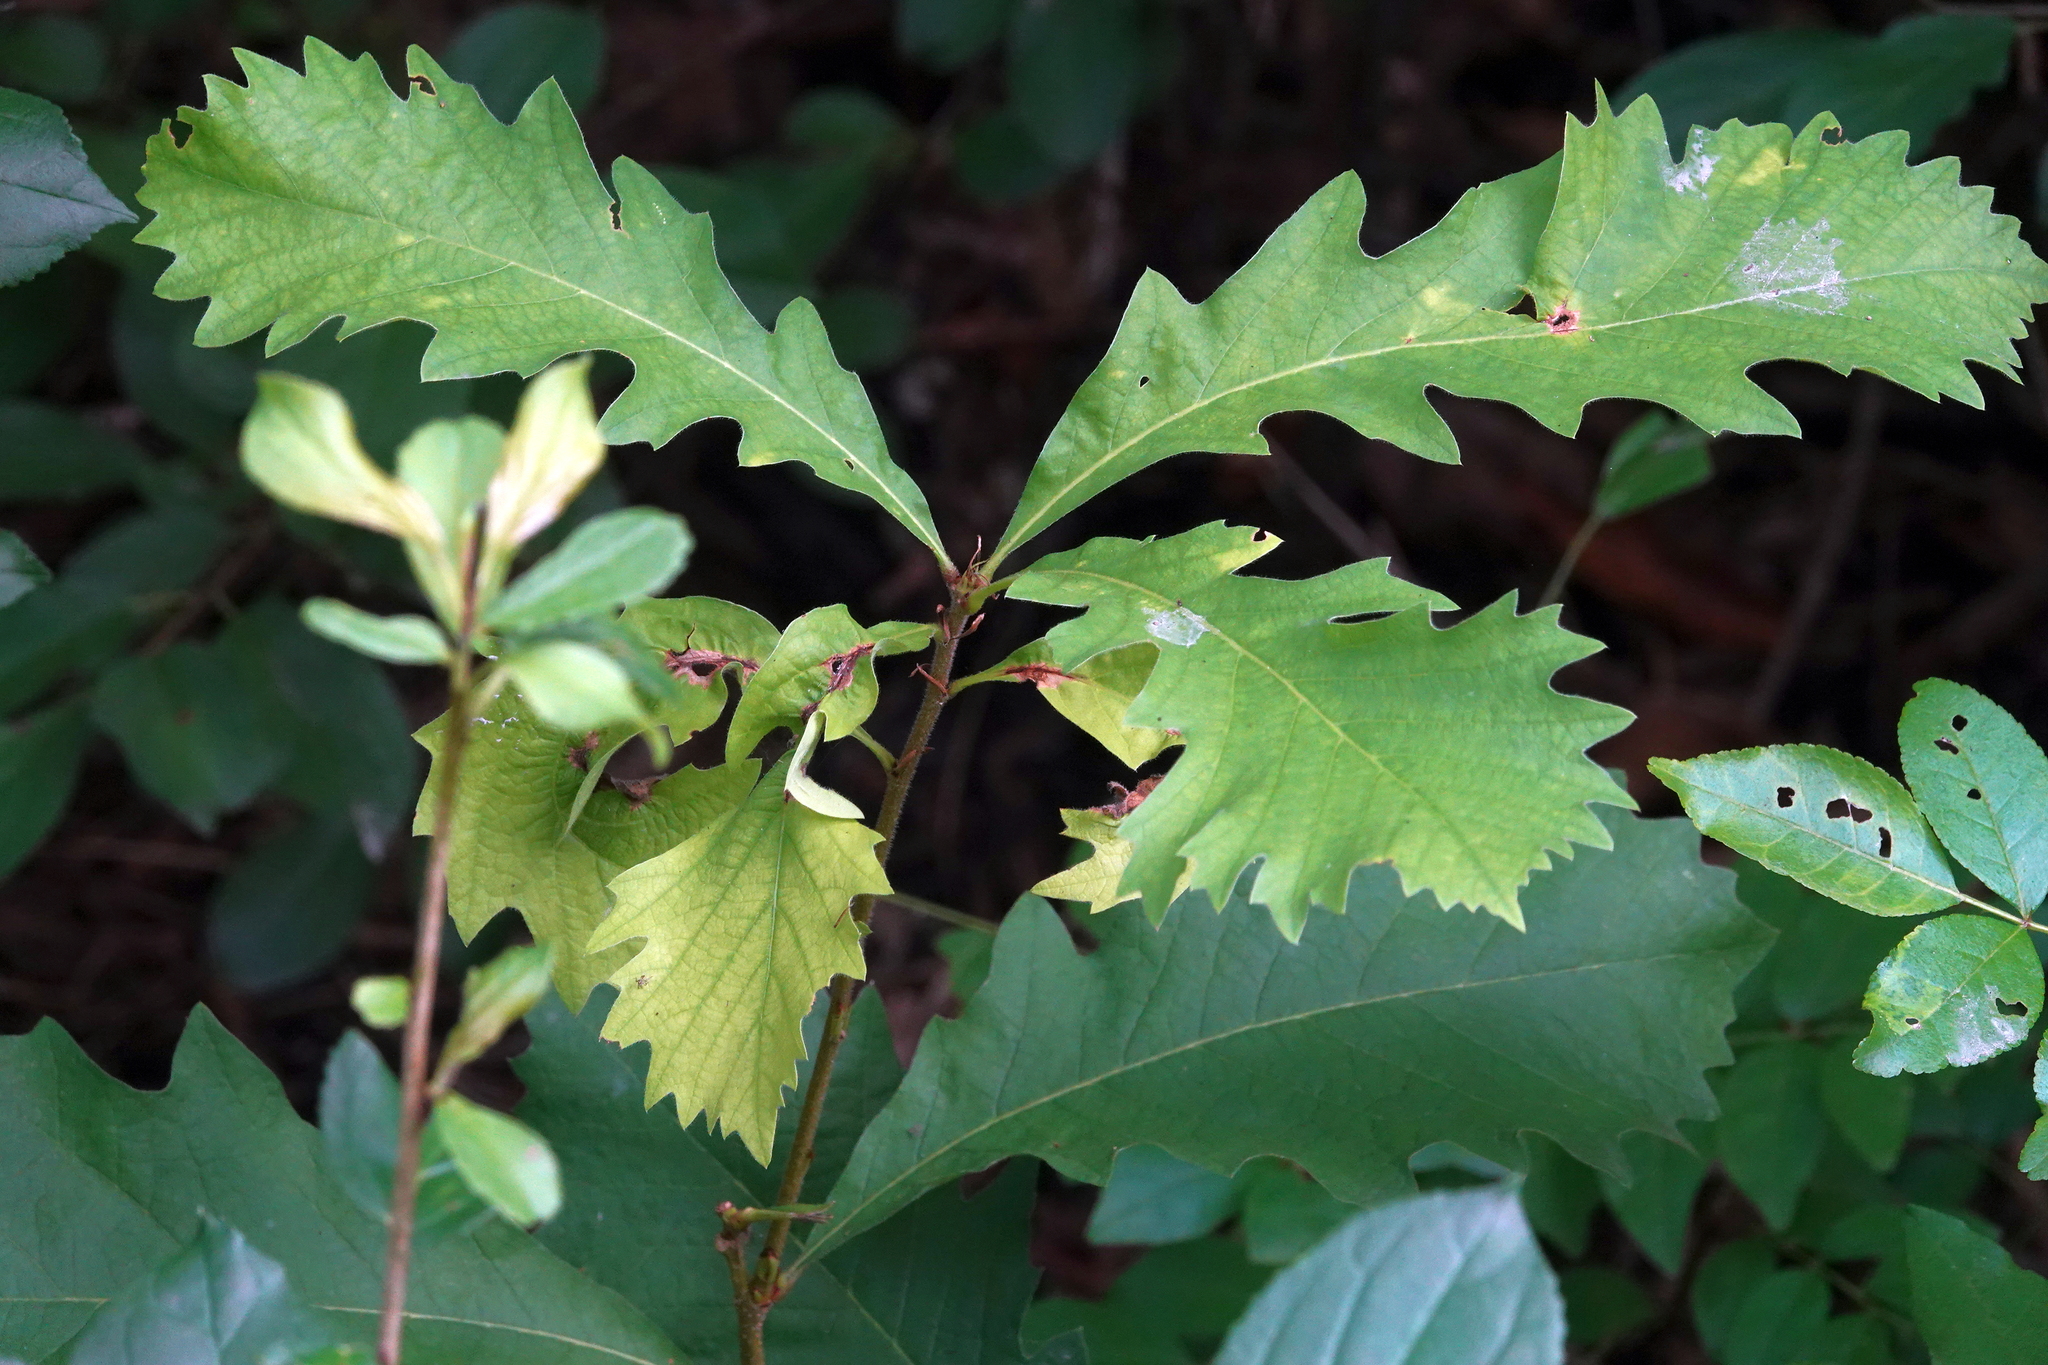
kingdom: Plantae
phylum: Tracheophyta
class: Magnoliopsida
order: Fagales
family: Fagaceae
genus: Quercus
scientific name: Quercus macrocarpa
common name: Bur oak
